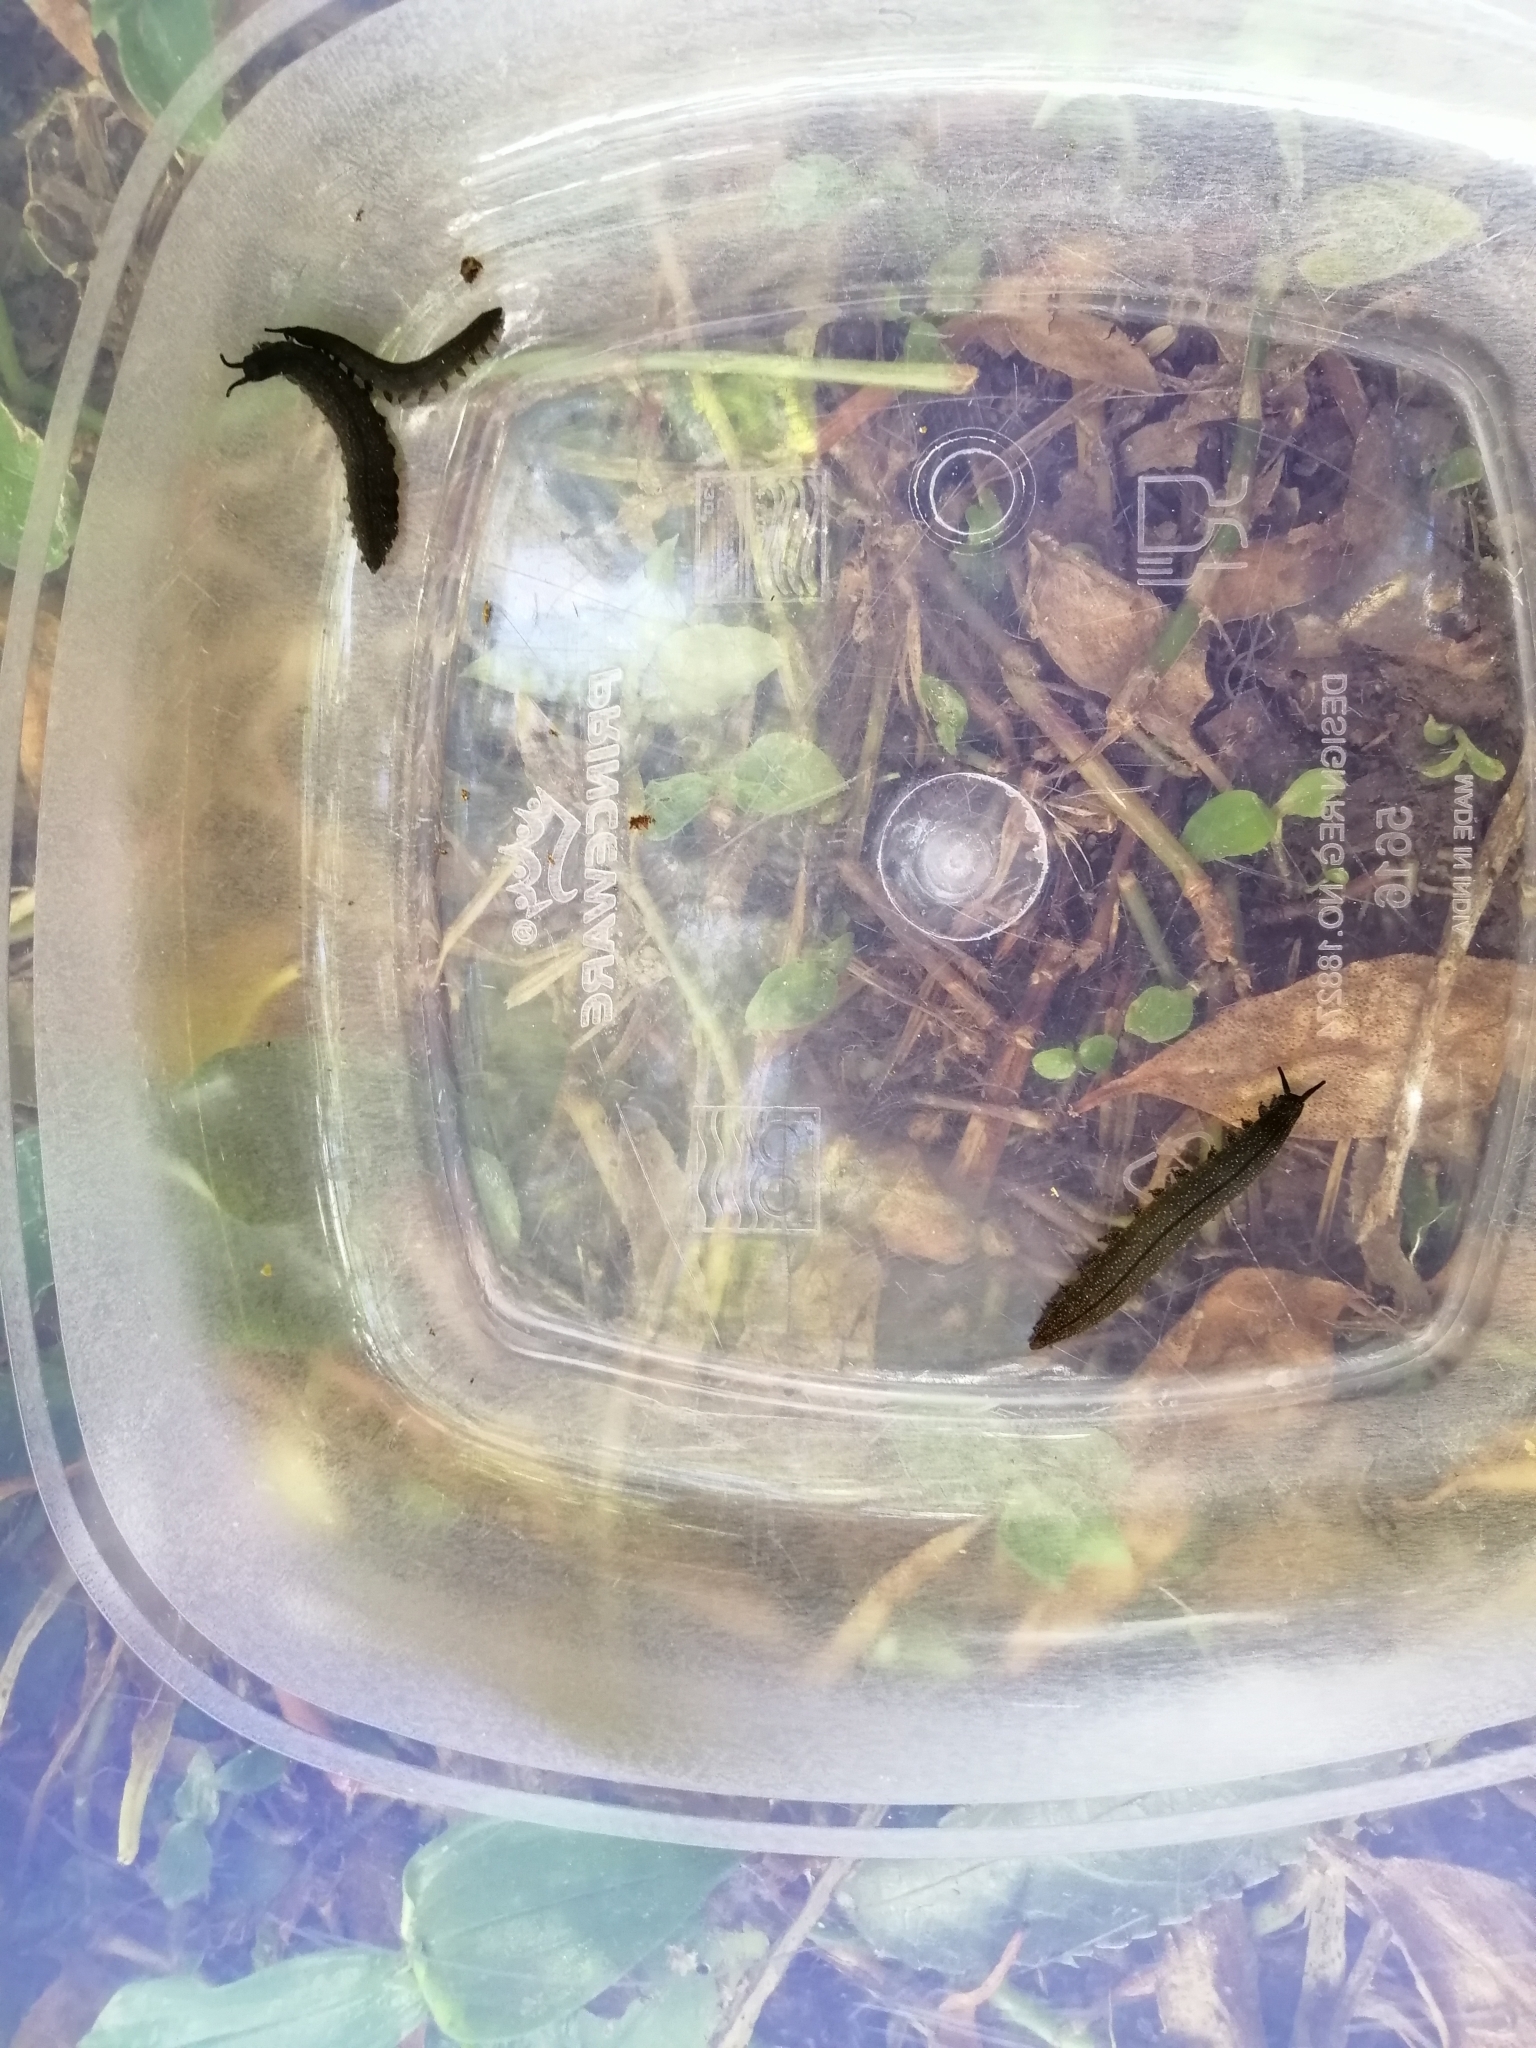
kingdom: Animalia
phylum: Onychophora
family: Peripatopsidae
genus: Peripatoides
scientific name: Peripatoides novaezealandiae
